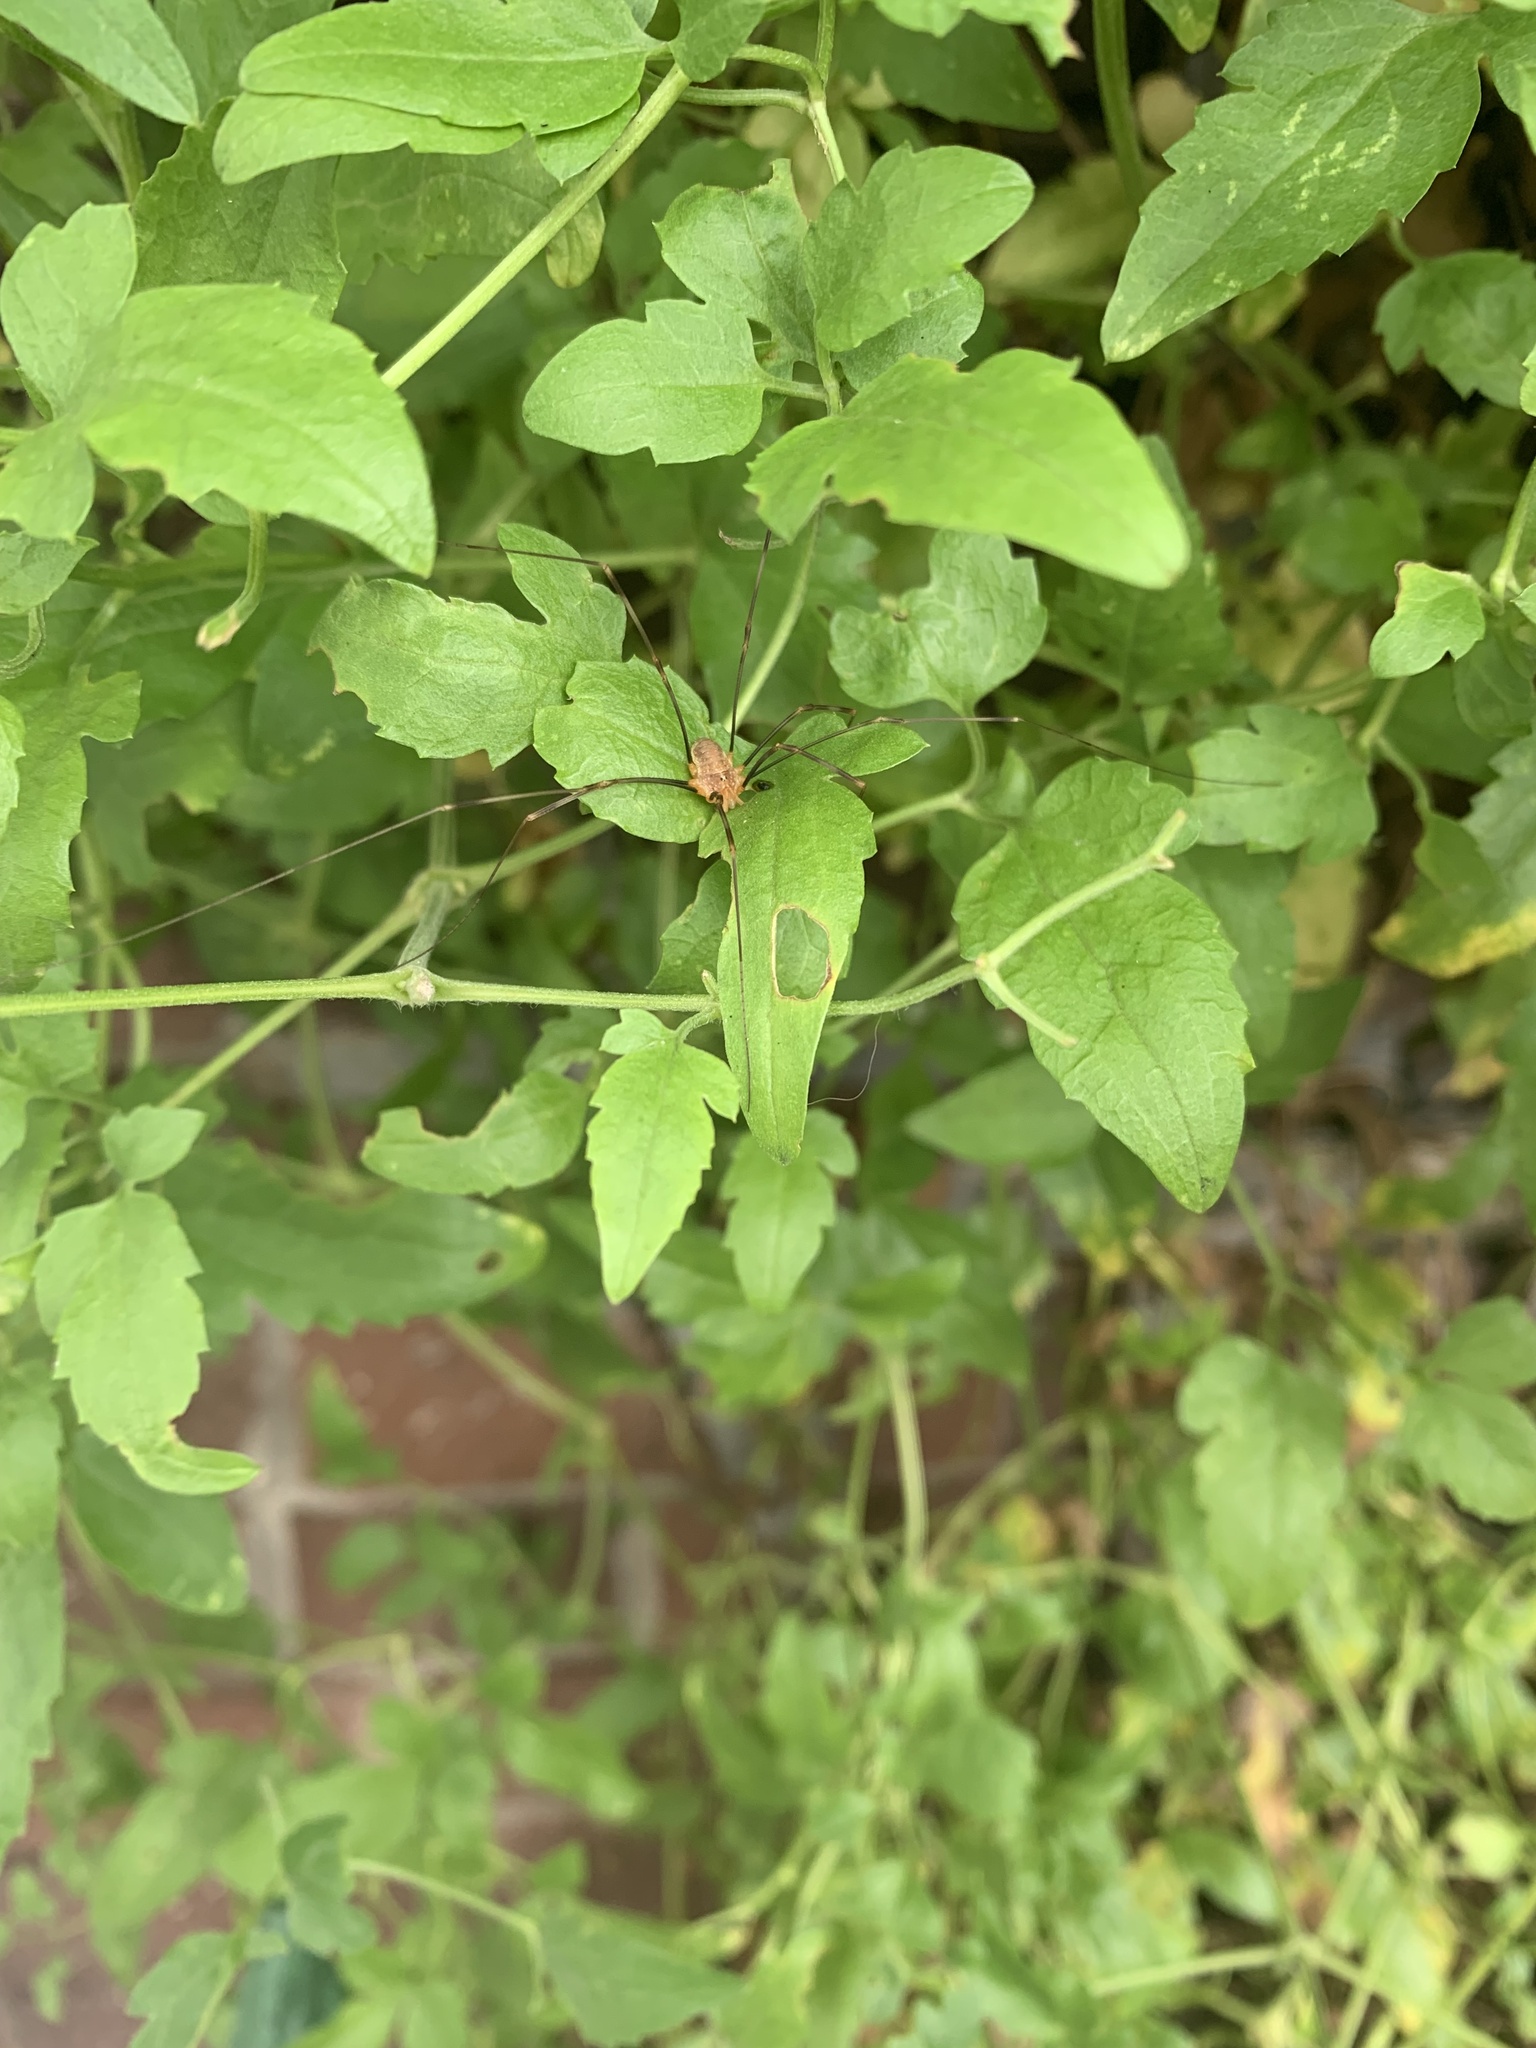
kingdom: Animalia
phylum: Arthropoda
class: Arachnida
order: Opiliones
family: Phalangiidae
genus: Opilio
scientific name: Opilio canestrinii
